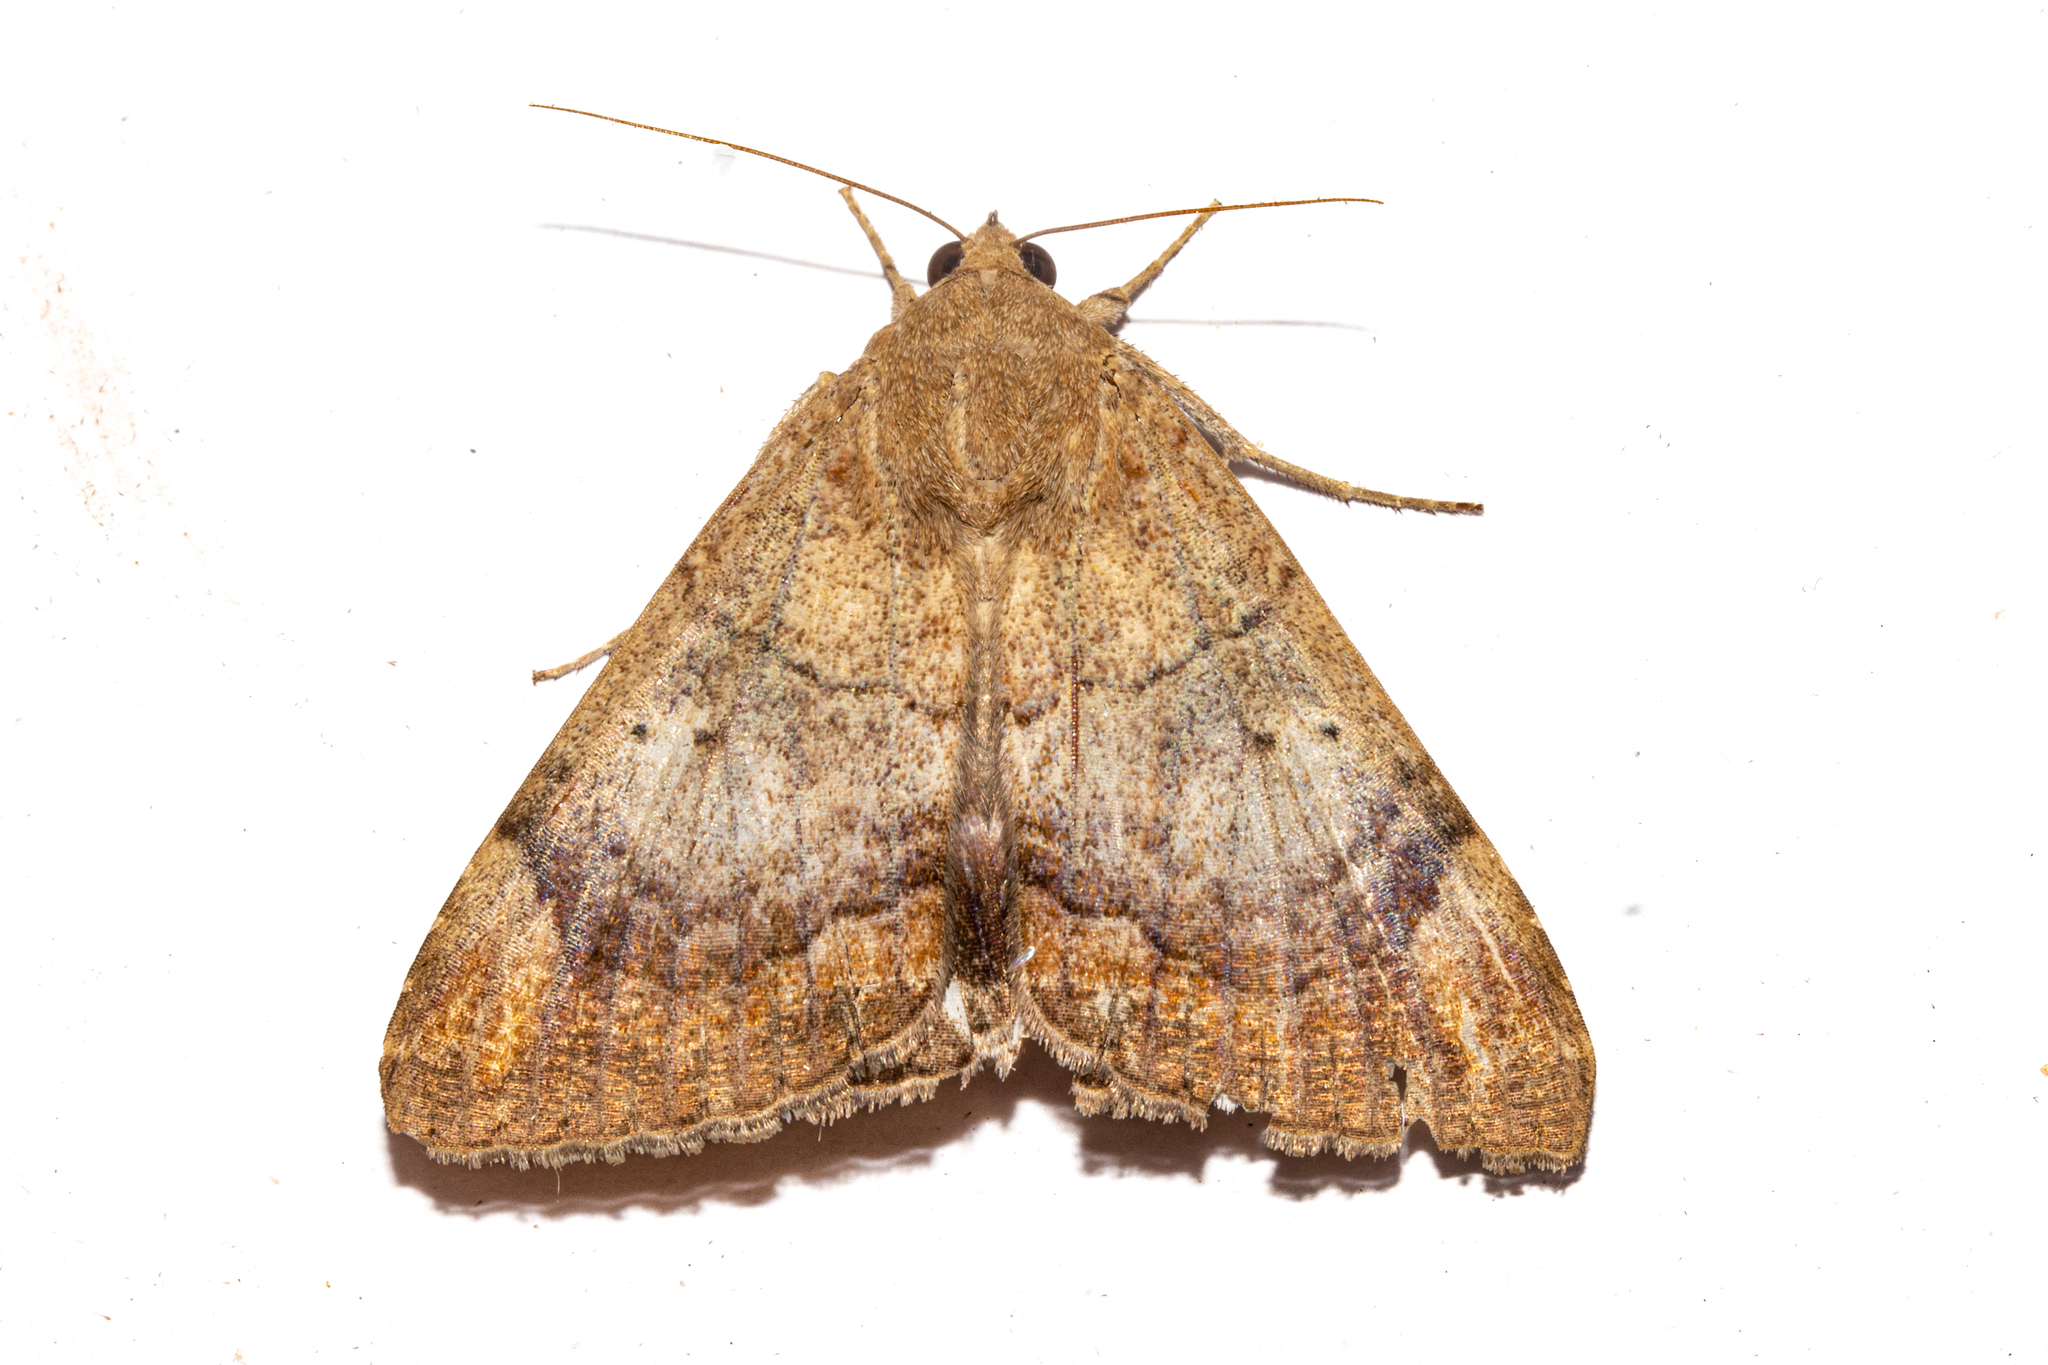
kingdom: Animalia
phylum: Arthropoda
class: Insecta
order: Lepidoptera
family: Erebidae
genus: Achaea
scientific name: Achaea janata
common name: Croton caterpillar
